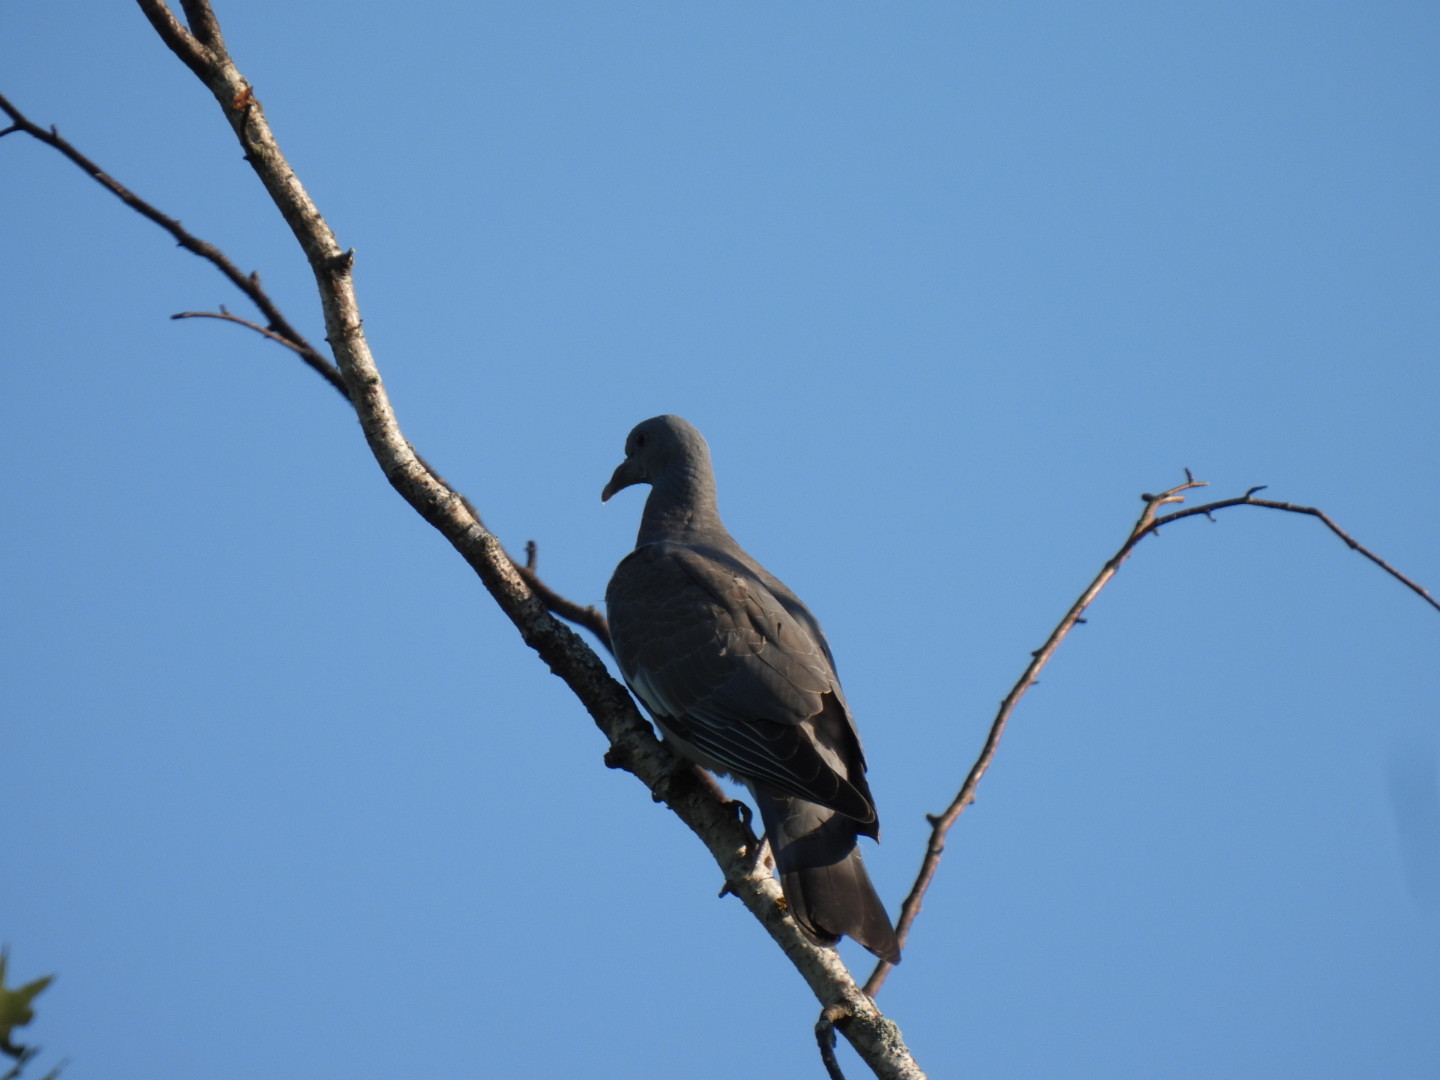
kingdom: Animalia
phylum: Chordata
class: Aves
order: Columbiformes
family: Columbidae
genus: Columba
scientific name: Columba palumbus
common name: Common wood pigeon
